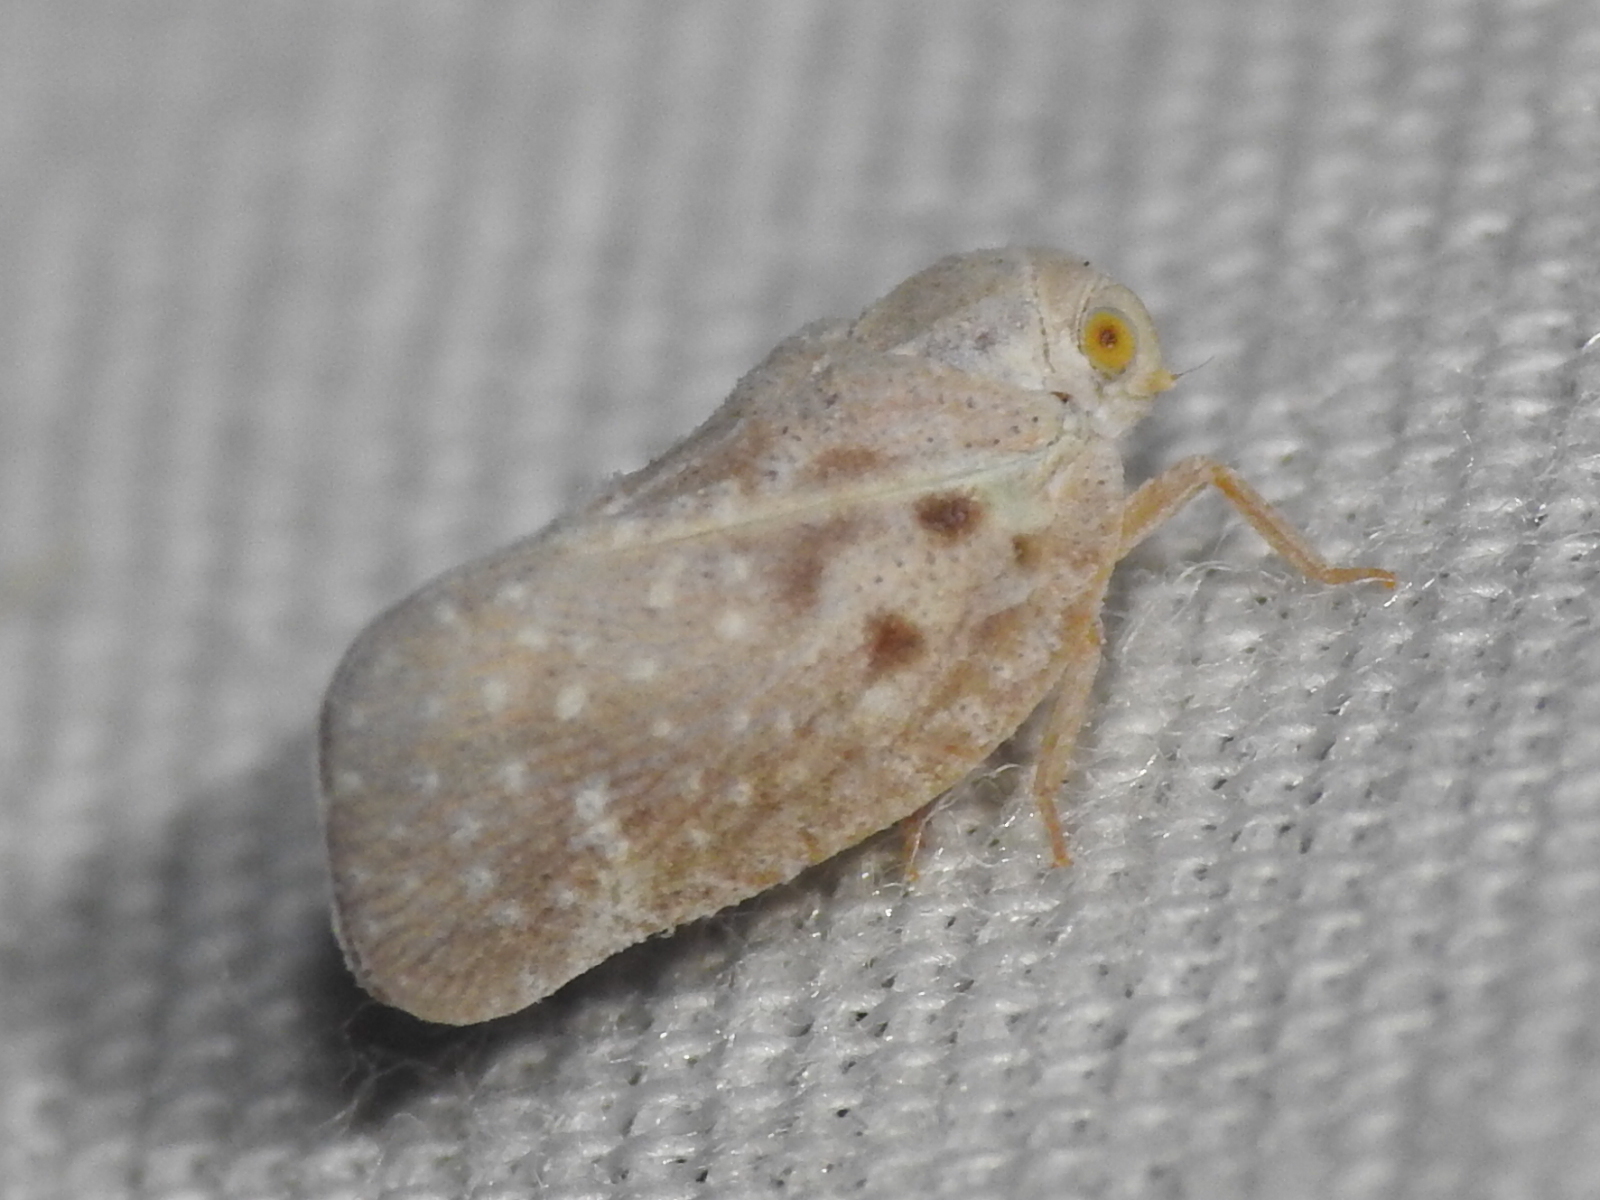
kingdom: Animalia
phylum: Arthropoda
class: Insecta
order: Hemiptera
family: Flatidae
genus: Metcalfa
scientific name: Metcalfa pruinosa
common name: Citrus flatid planthopper
